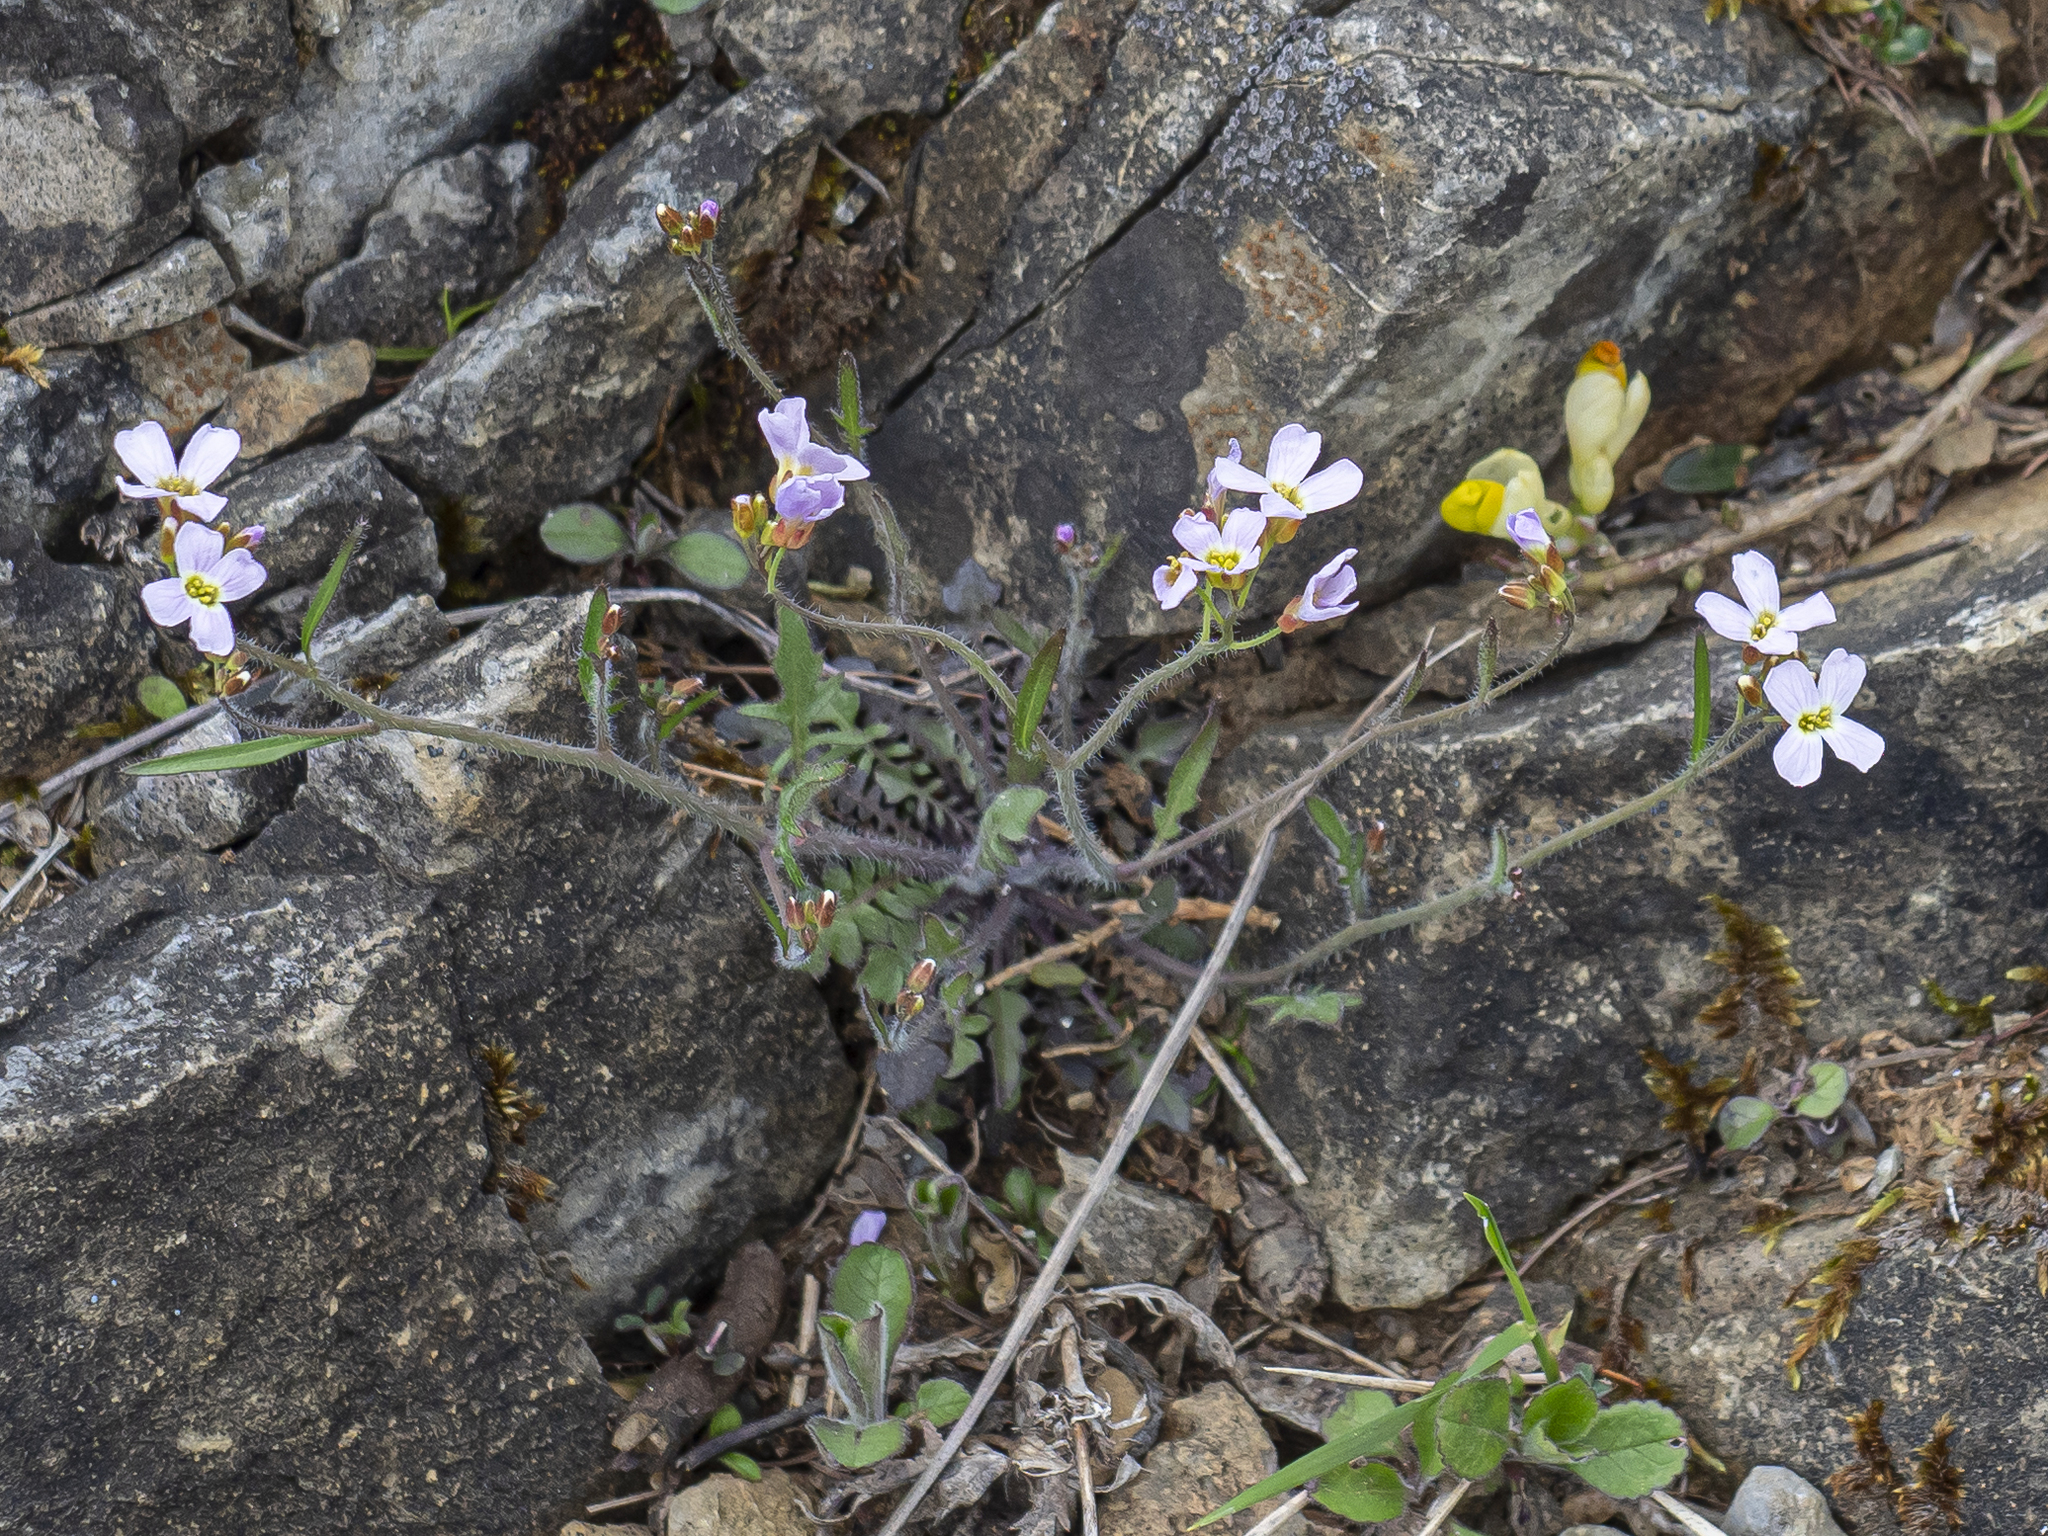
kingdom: Plantae
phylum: Tracheophyta
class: Magnoliopsida
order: Brassicales
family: Brassicaceae
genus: Arabidopsis
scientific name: Arabidopsis arenosa
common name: Sand rock-cress
